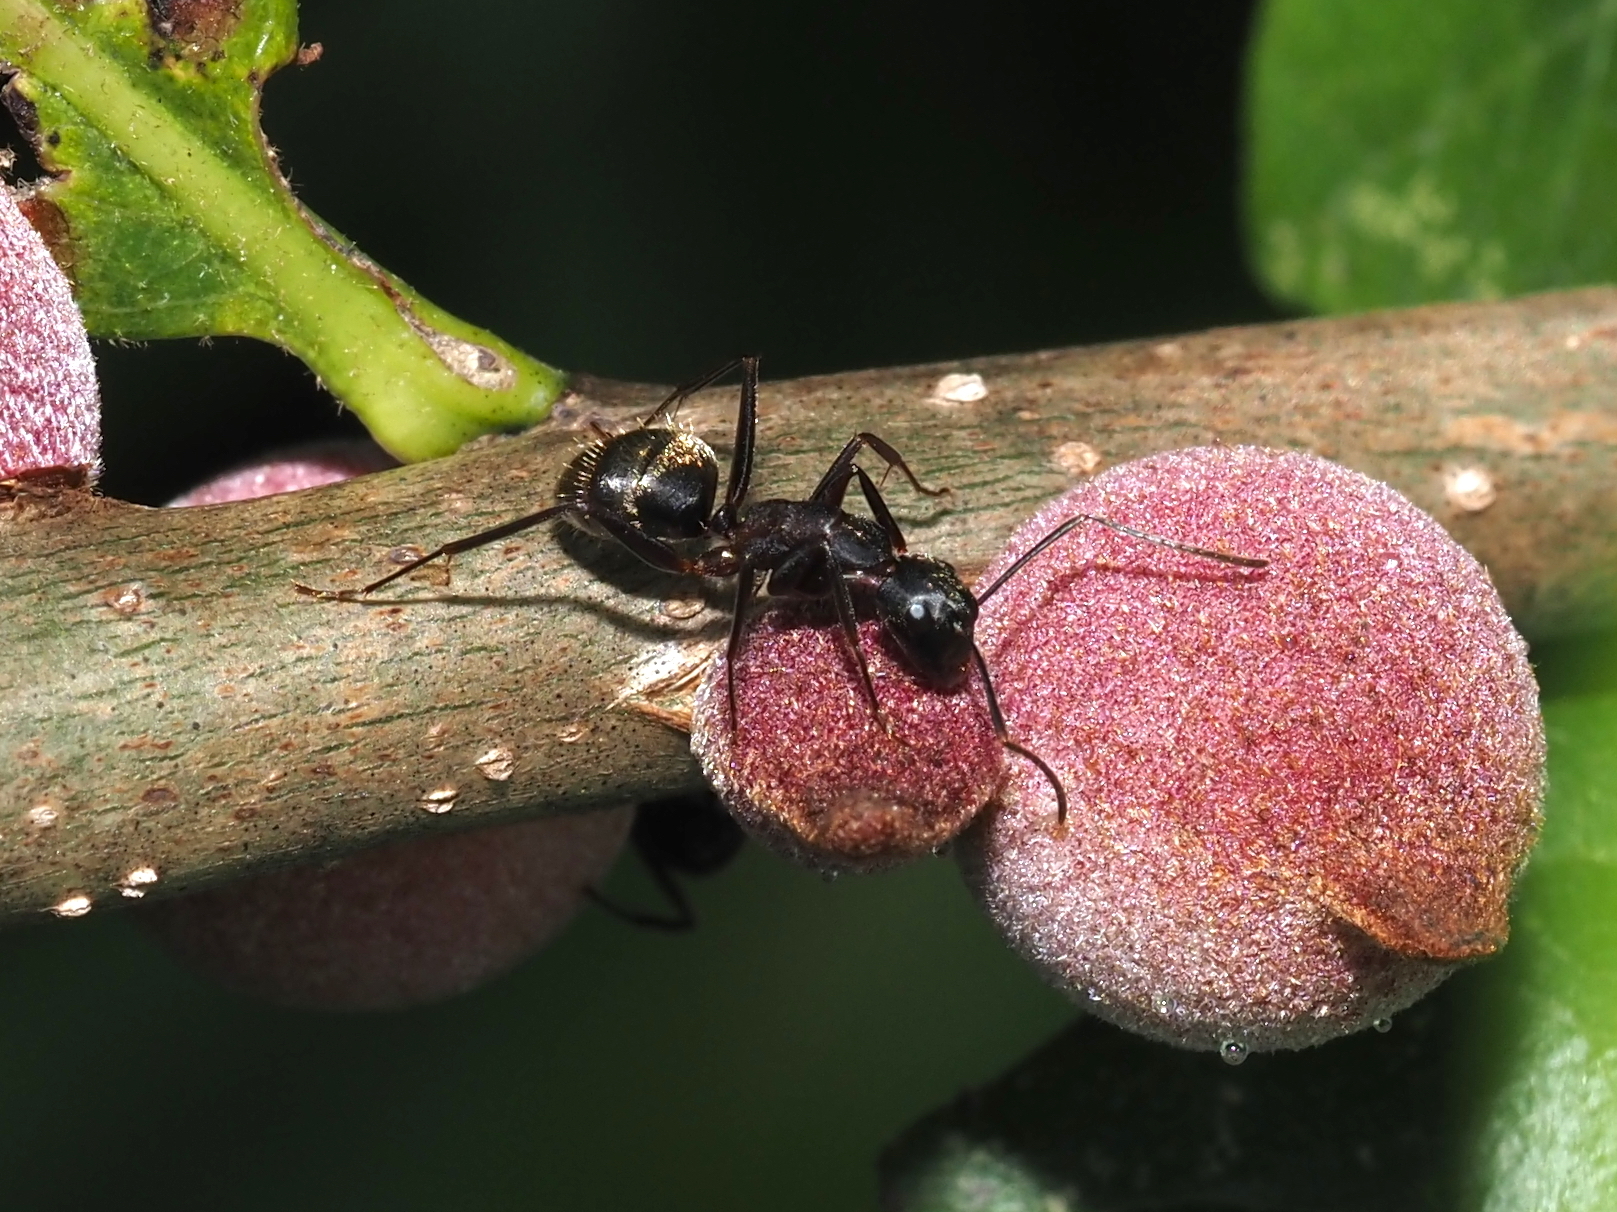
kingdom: Animalia
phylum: Arthropoda
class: Insecta
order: Hymenoptera
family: Formicidae
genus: Camponotus
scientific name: Camponotus chromaiodes
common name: Red carpenter ant
